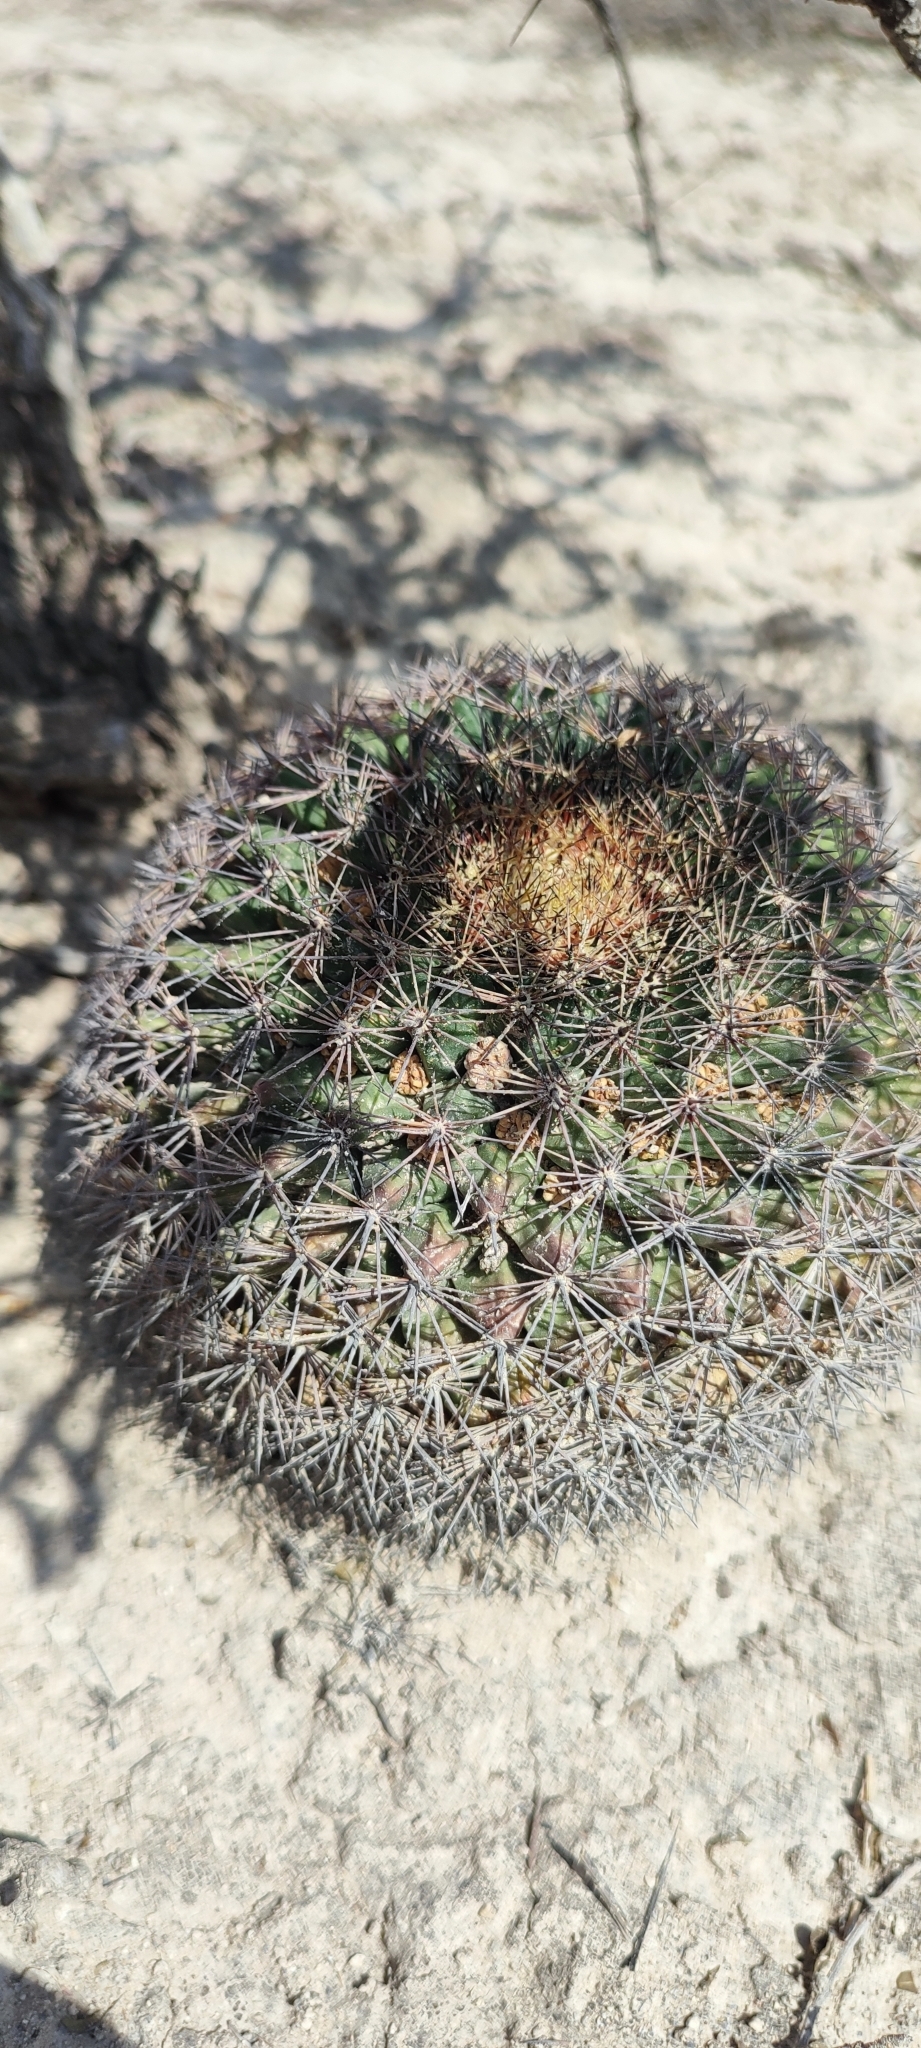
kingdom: Plantae
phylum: Tracheophyta
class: Magnoliopsida
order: Caryophyllales
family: Cactaceae
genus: Mammillaria
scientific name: Mammillaria heyderi
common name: Little nipple cactus
